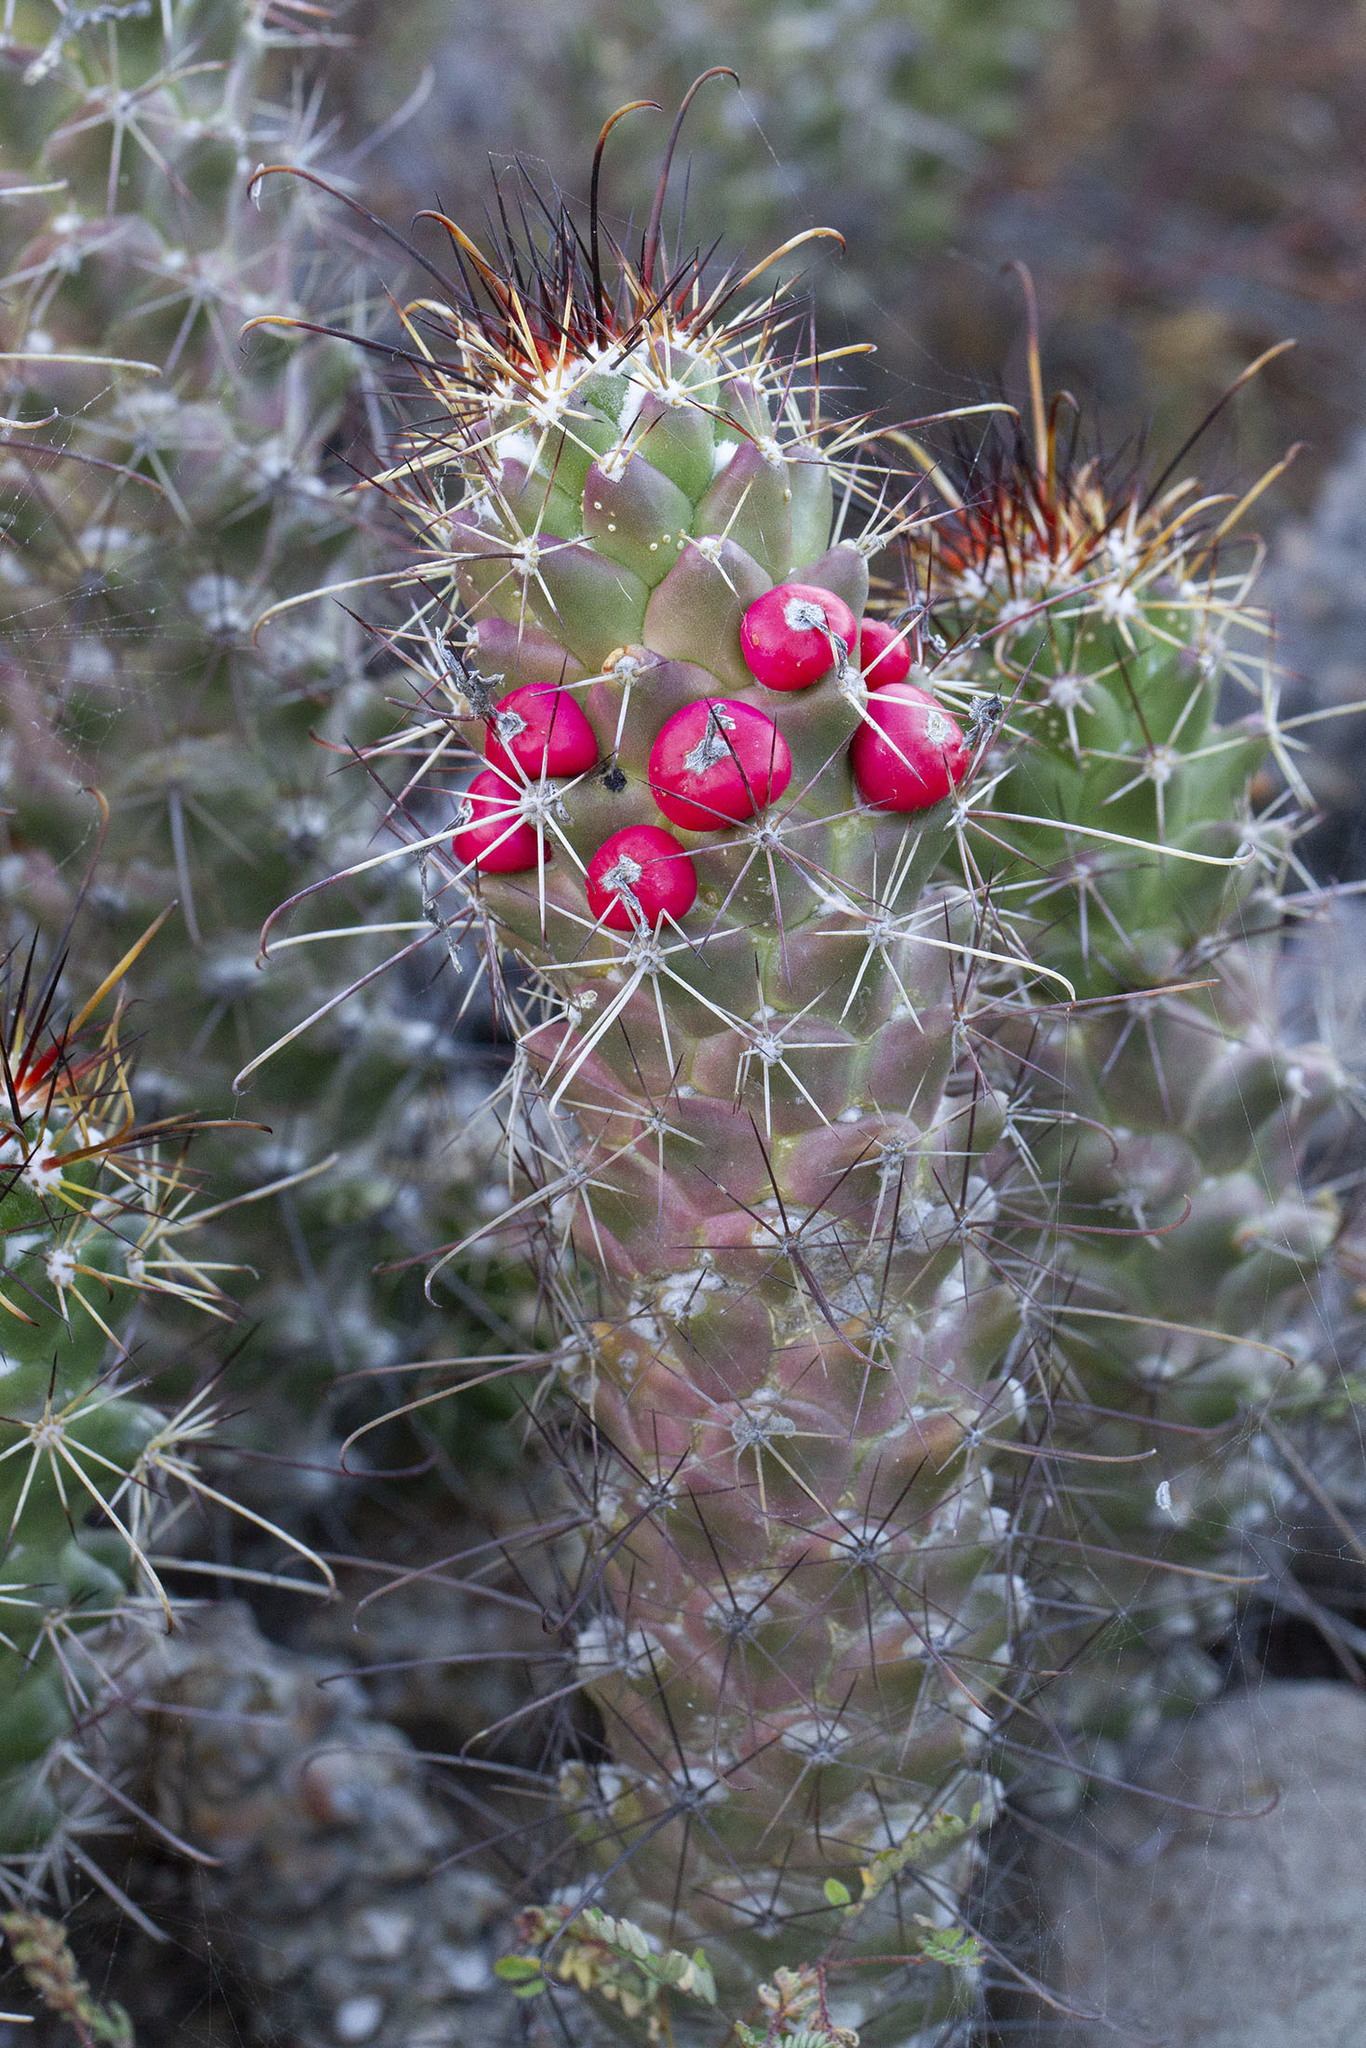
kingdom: Plantae
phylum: Tracheophyta
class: Magnoliopsida
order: Caryophyllales
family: Cactaceae
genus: Cochemiea
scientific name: Cochemiea poselgeri
